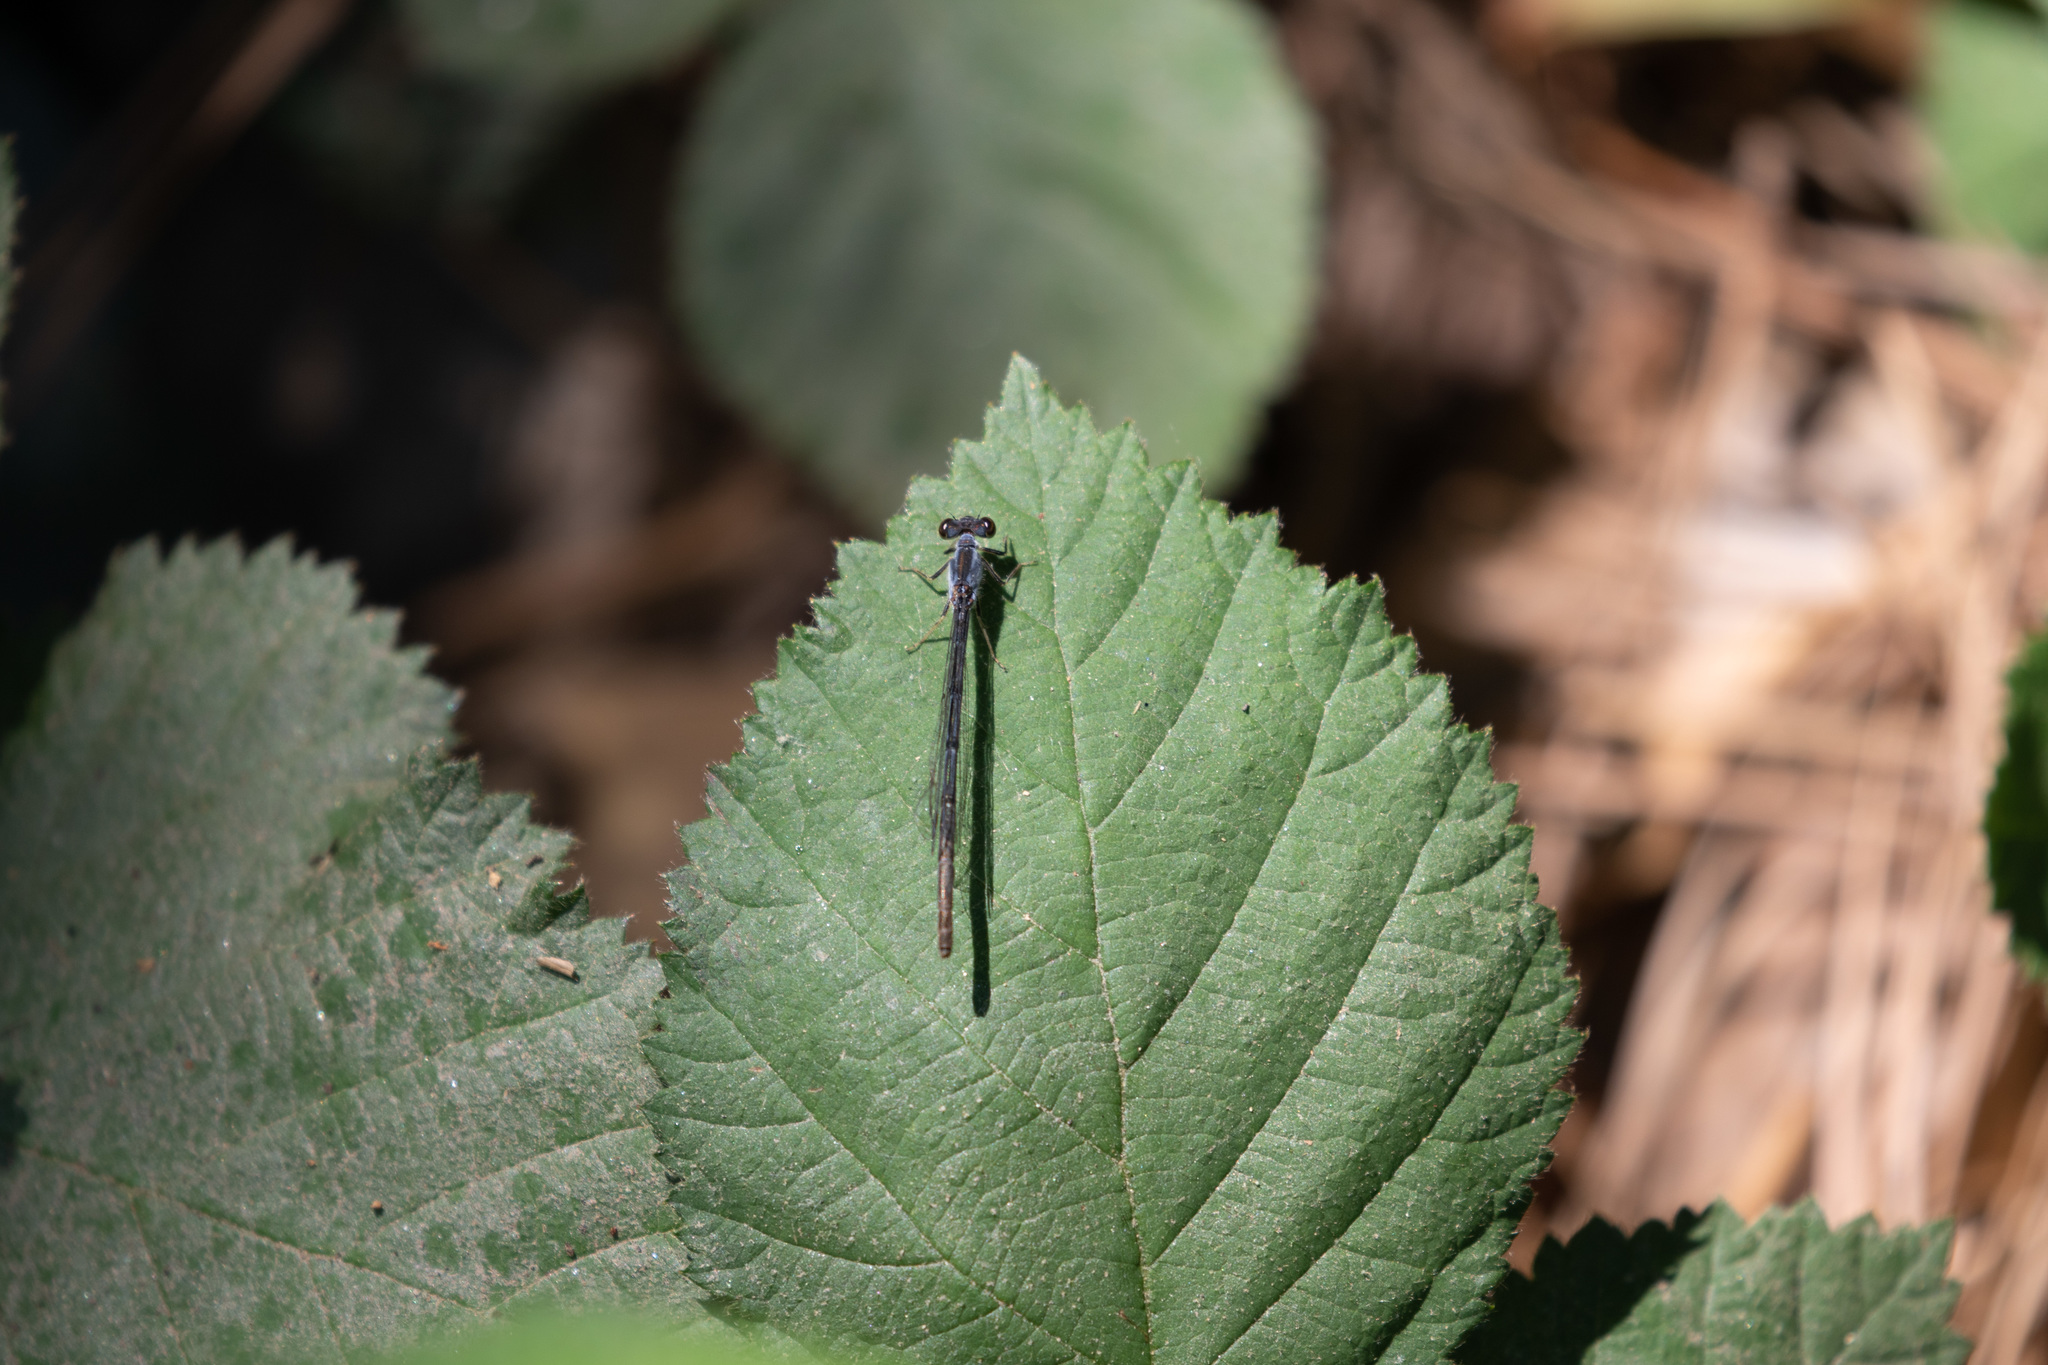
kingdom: Animalia
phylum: Arthropoda
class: Insecta
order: Odonata
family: Coenagrionidae
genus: Ischnura
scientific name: Ischnura posita
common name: Fragile forktail
